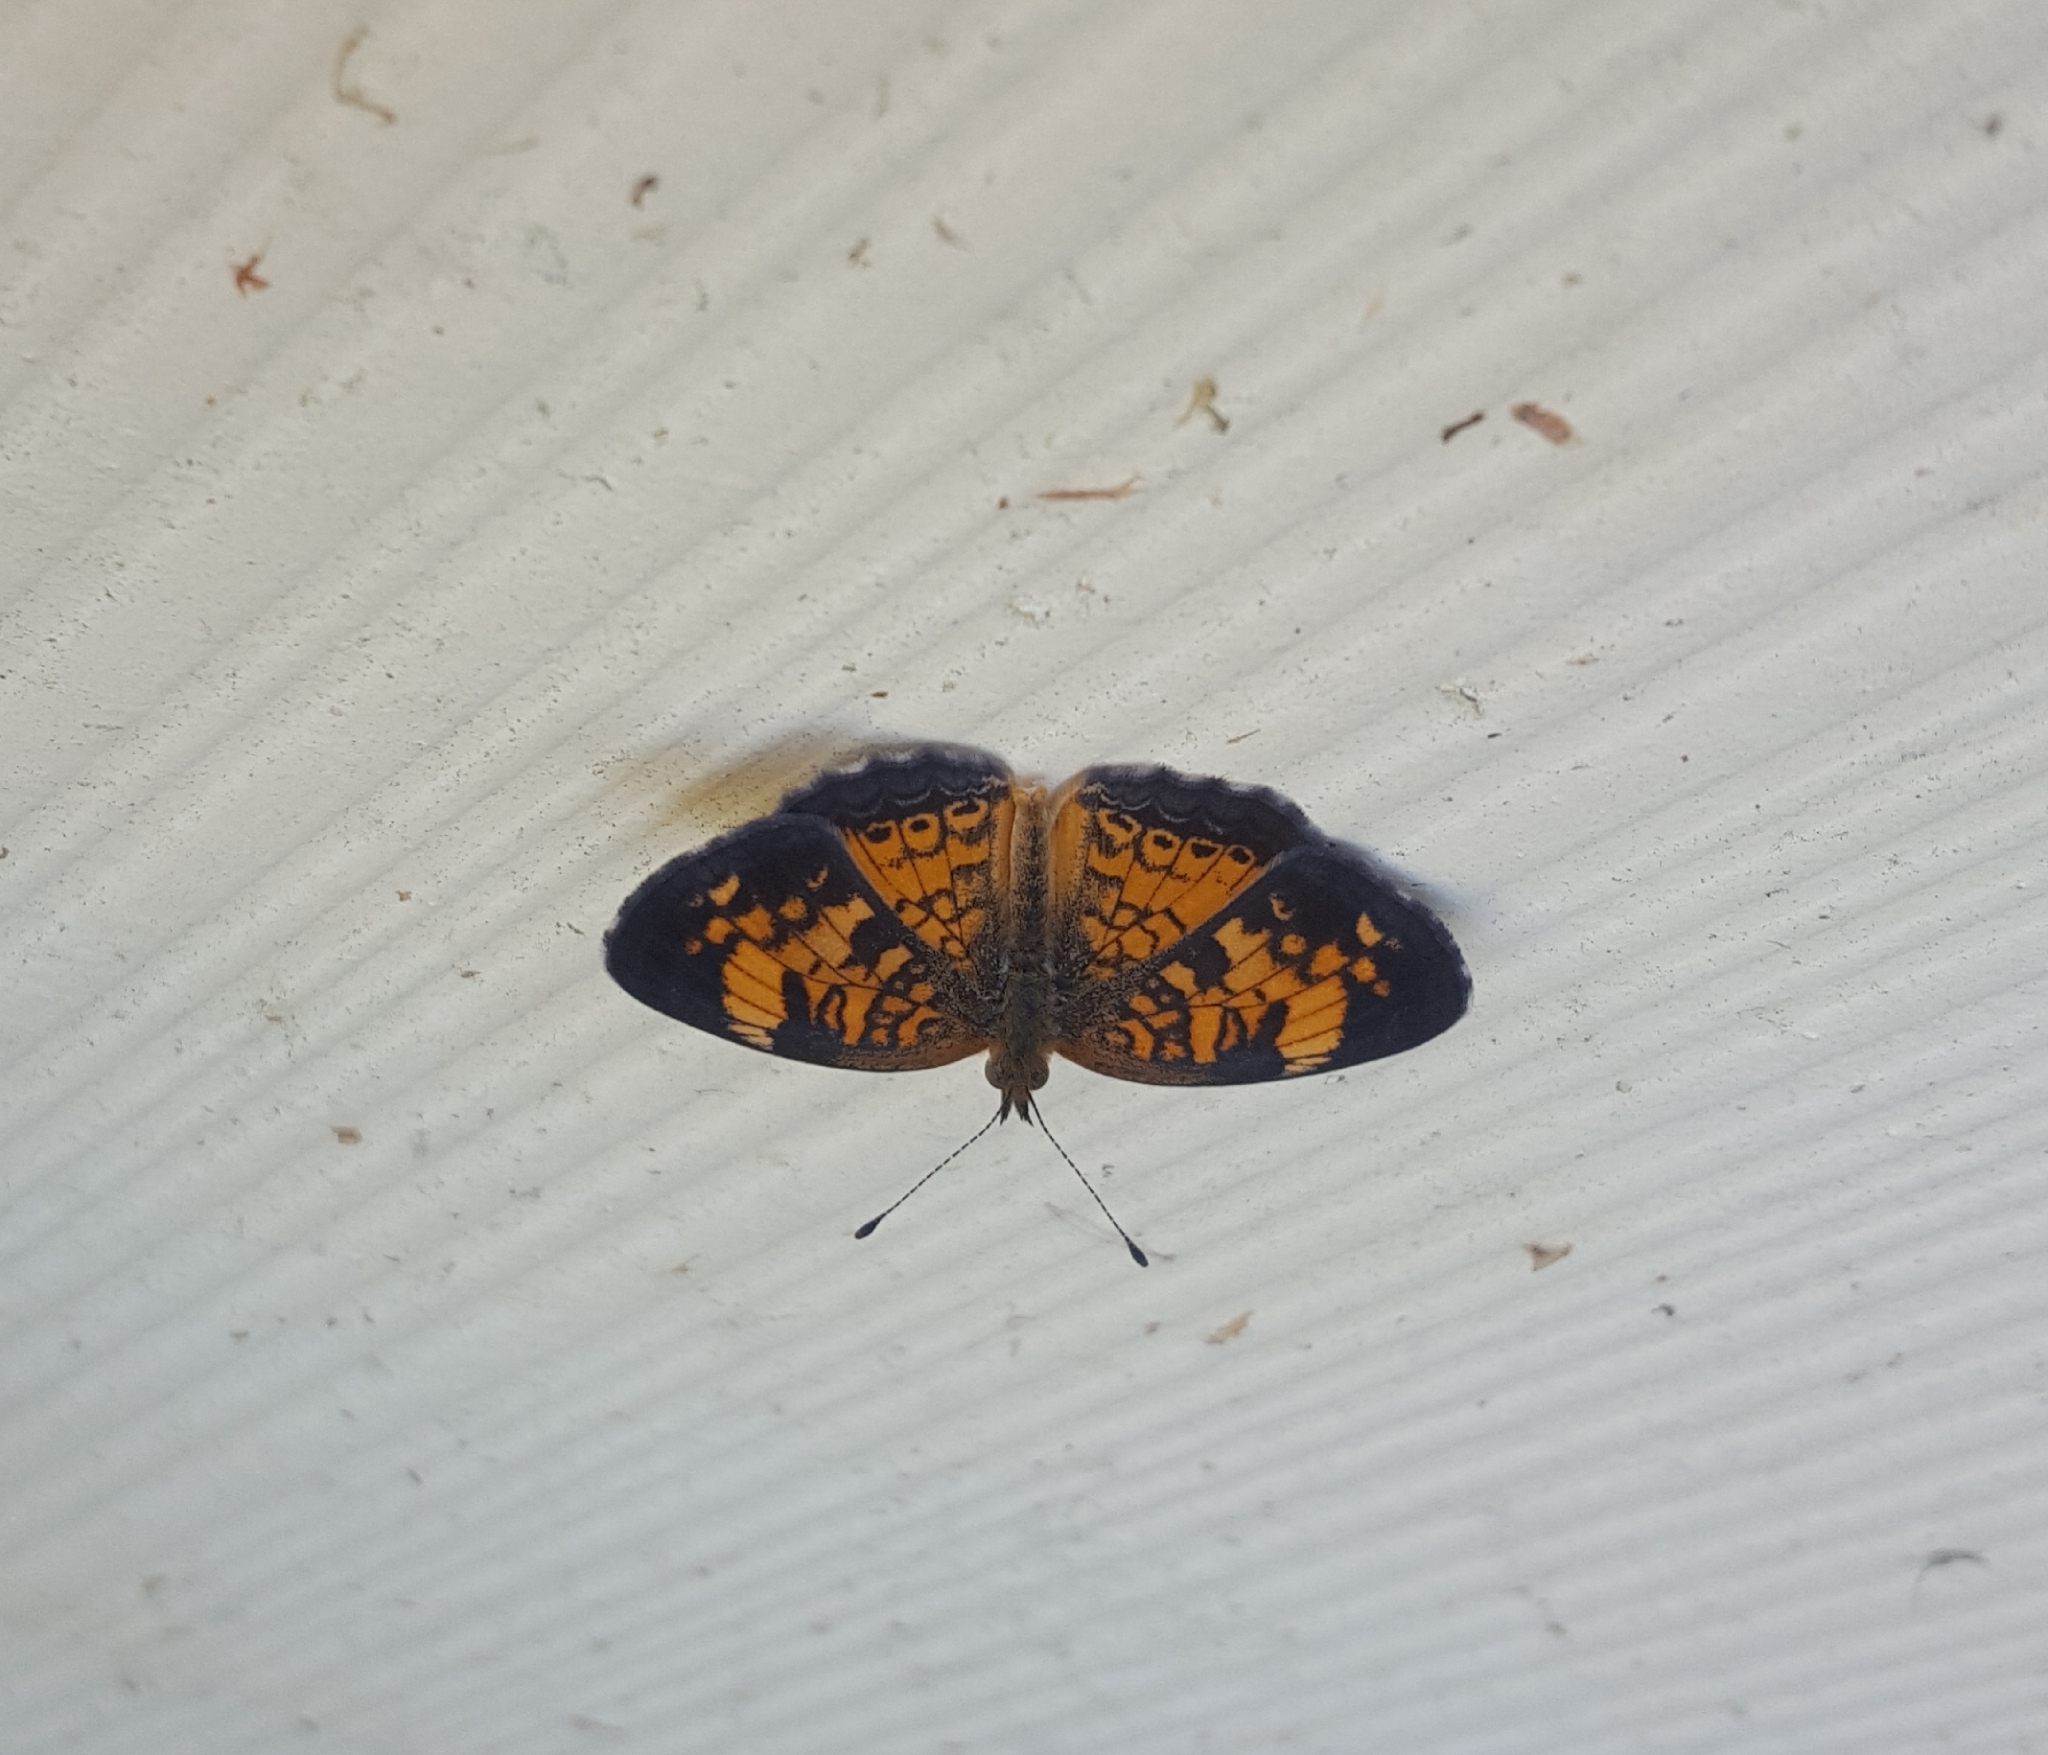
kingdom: Animalia
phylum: Arthropoda
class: Insecta
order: Lepidoptera
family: Nymphalidae
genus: Phyciodes
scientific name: Phyciodes tharos
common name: Pearl crescent
